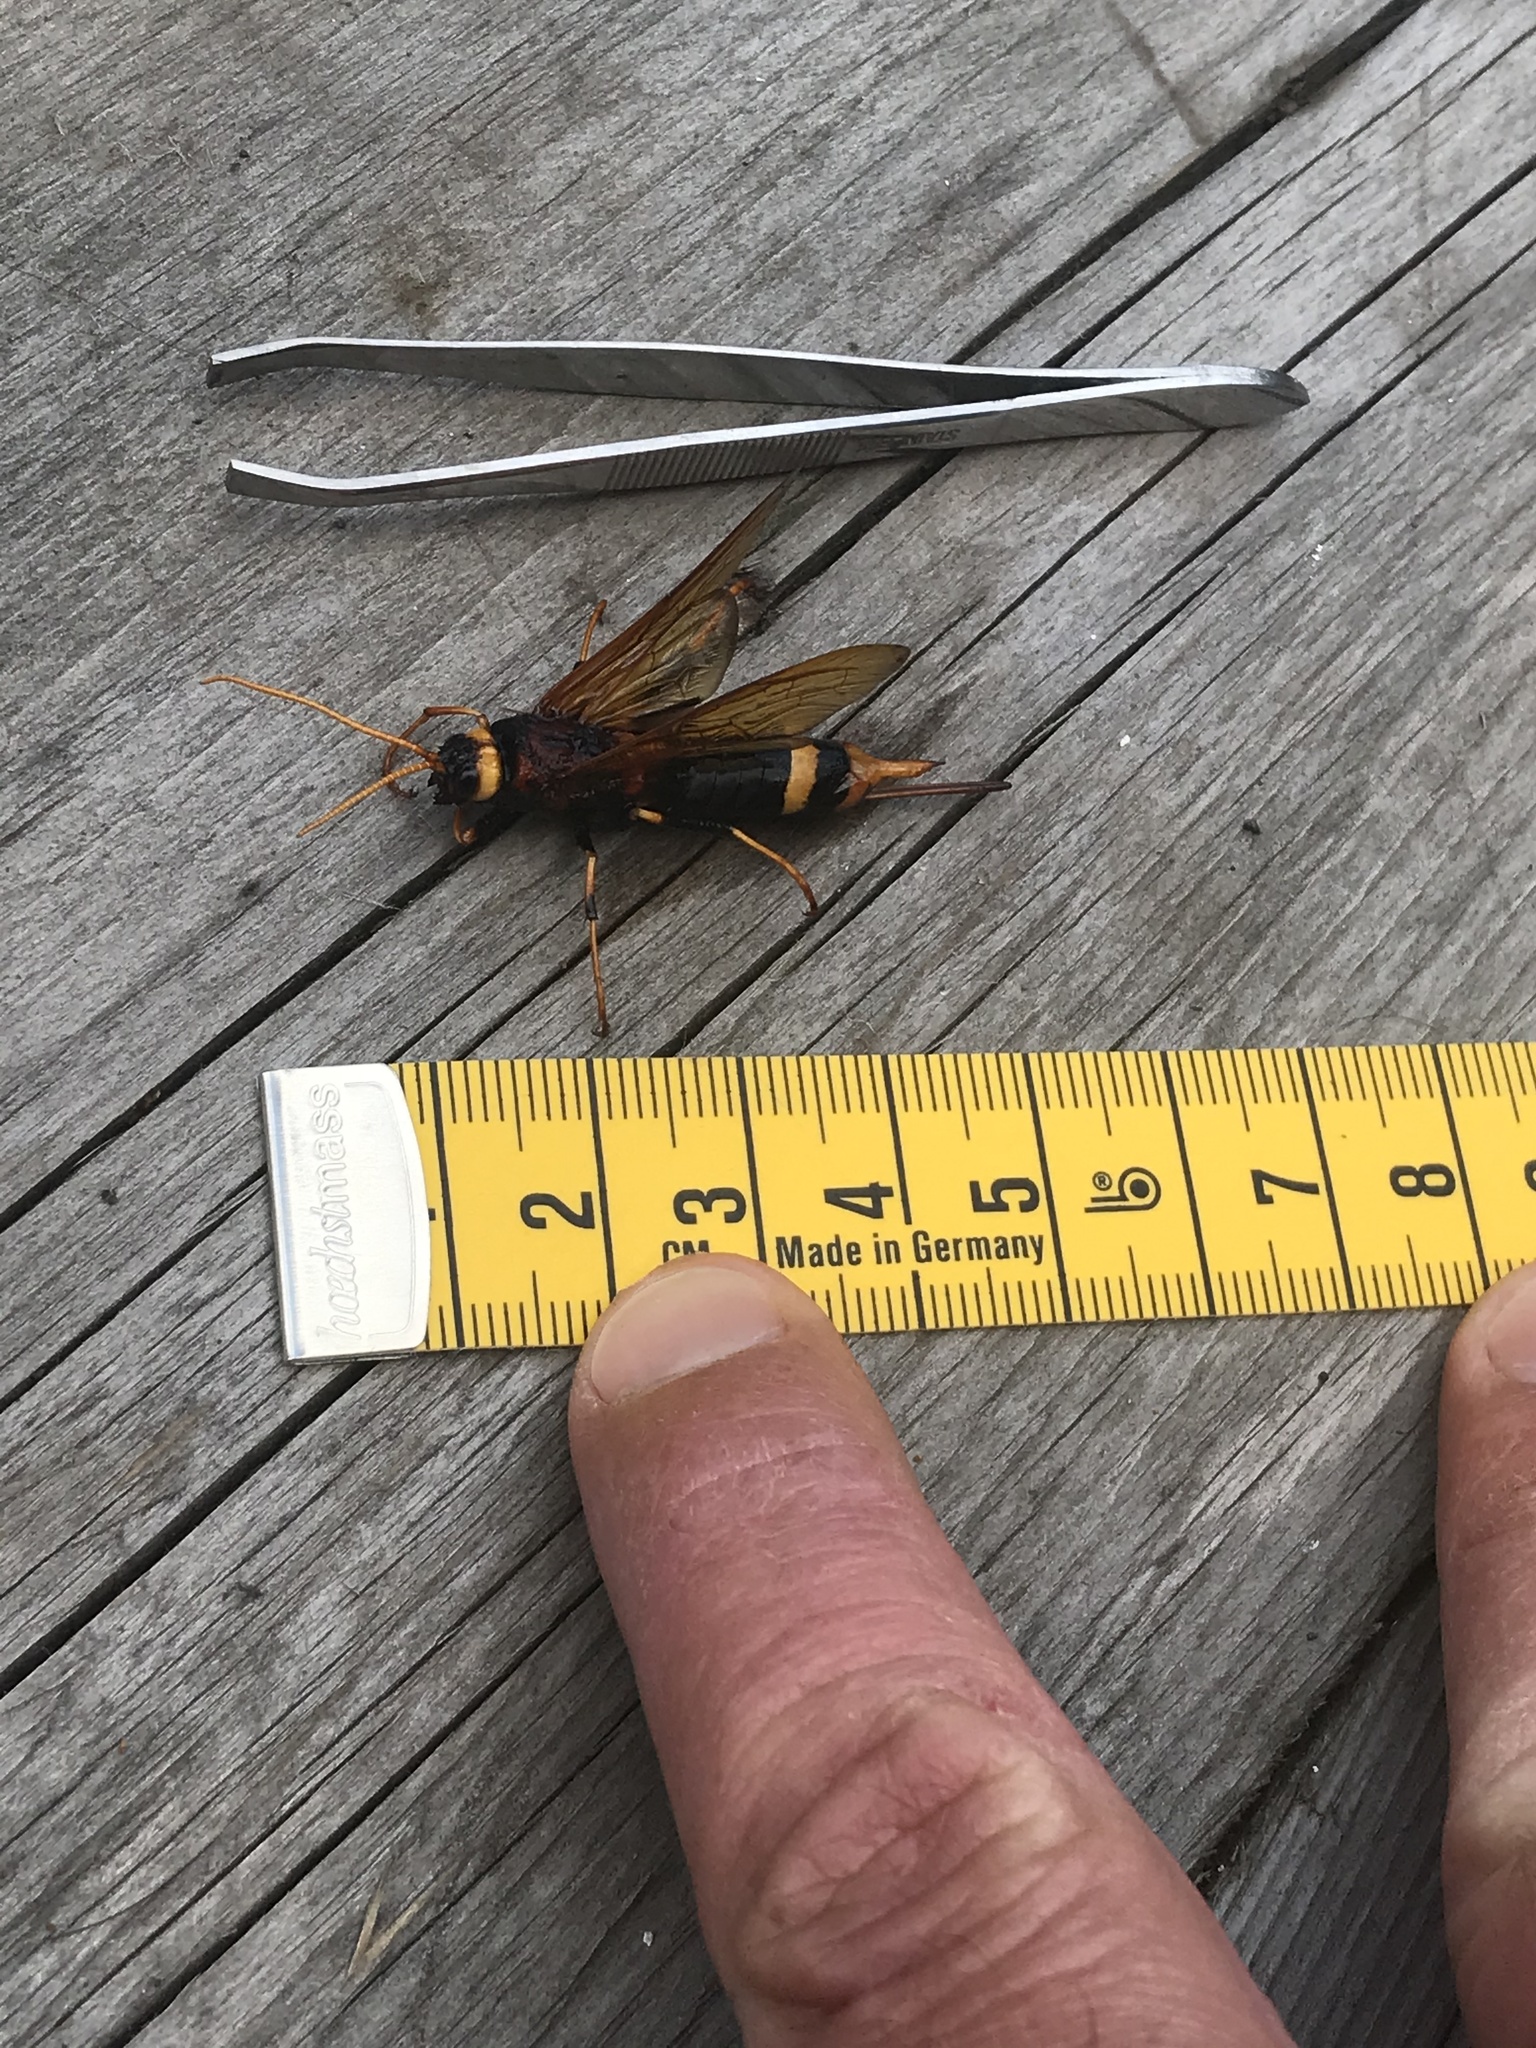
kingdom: Animalia
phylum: Arthropoda
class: Insecta
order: Hymenoptera
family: Siricidae
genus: Urocerus
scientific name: Urocerus sah
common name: Horntail wasp
